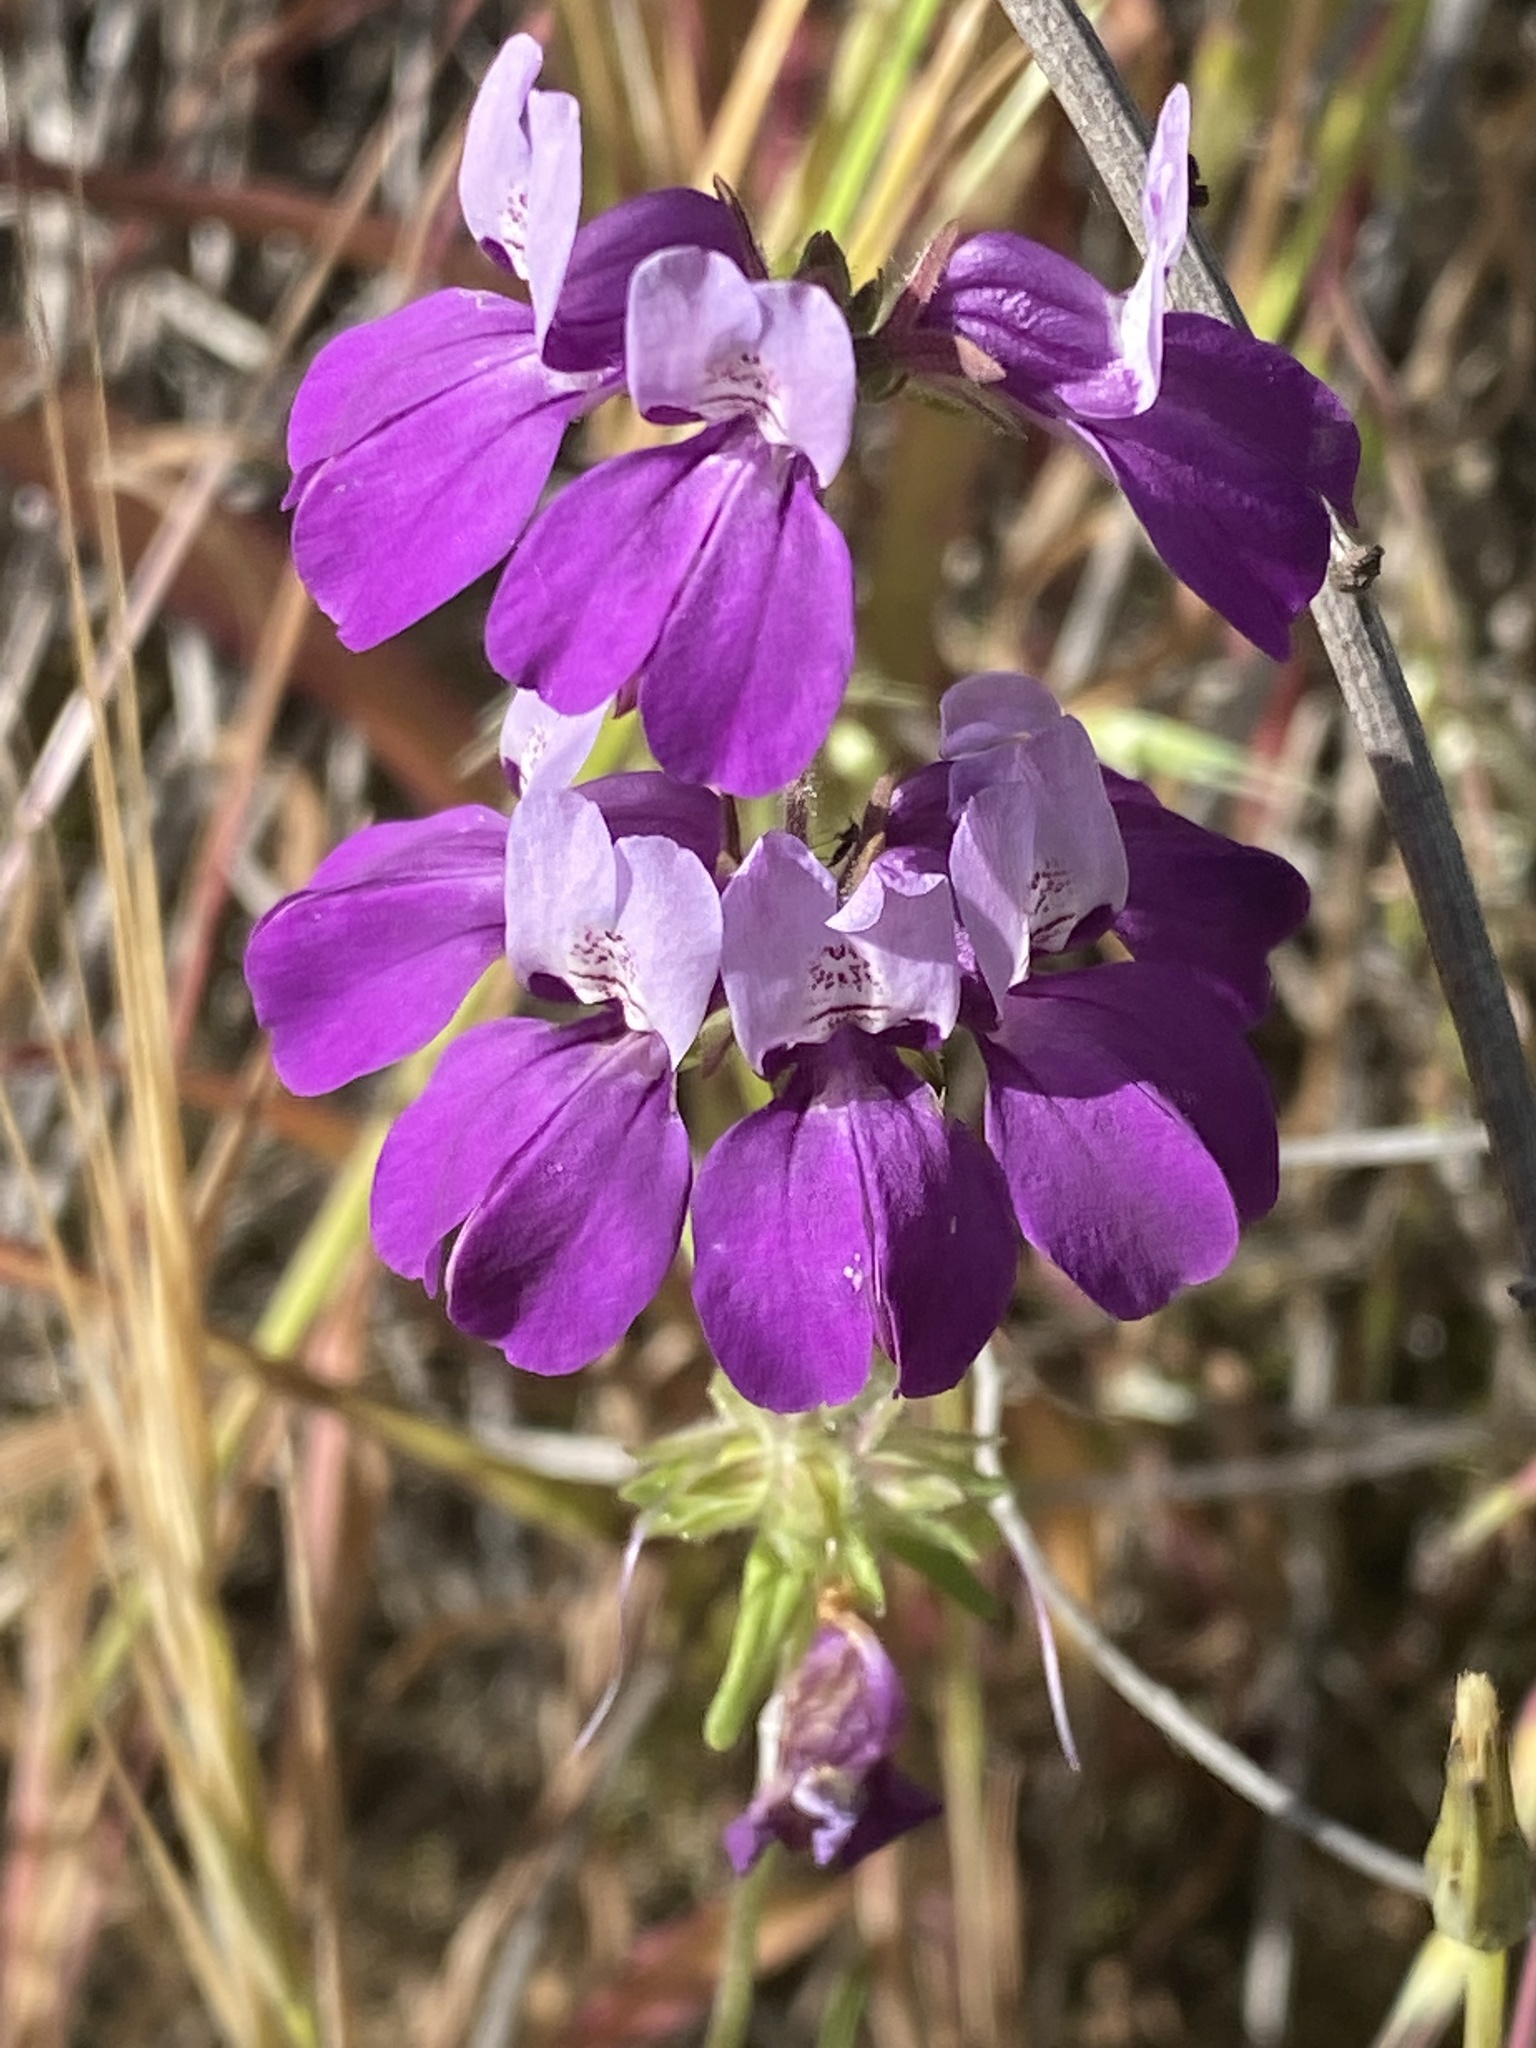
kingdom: Plantae
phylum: Tracheophyta
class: Magnoliopsida
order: Lamiales
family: Plantaginaceae
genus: Collinsia
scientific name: Collinsia heterophylla
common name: Chinese-houses
